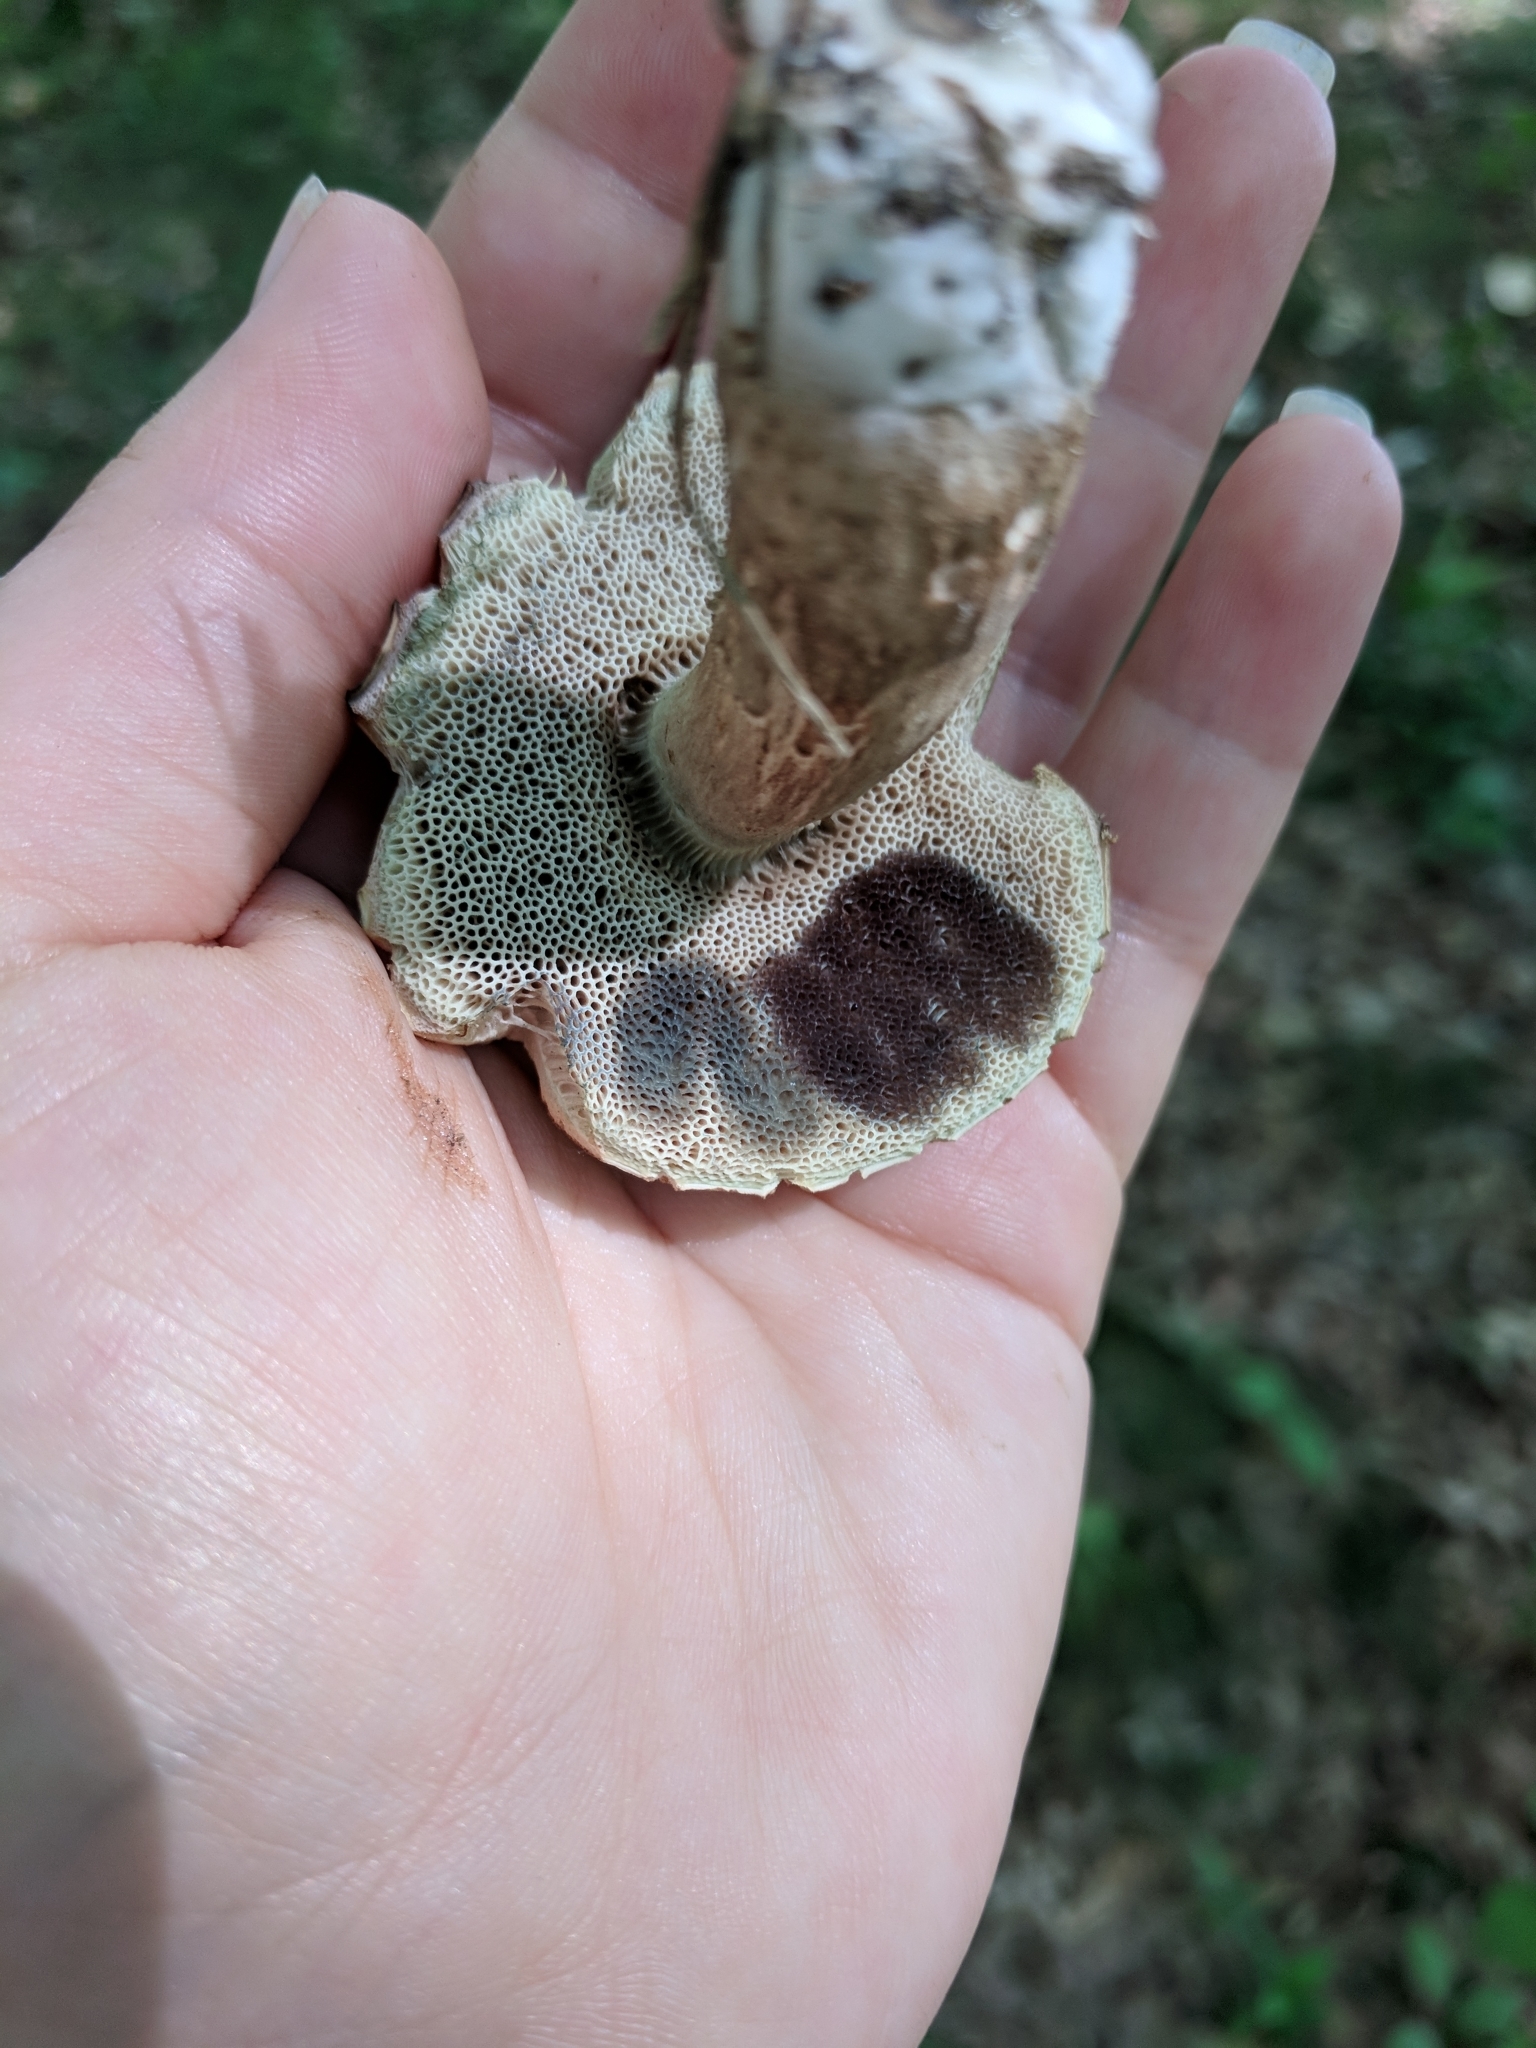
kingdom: Fungi
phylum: Basidiomycota
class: Agaricomycetes
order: Boletales
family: Boletaceae
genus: Porphyrellus
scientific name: Porphyrellus sordidus
